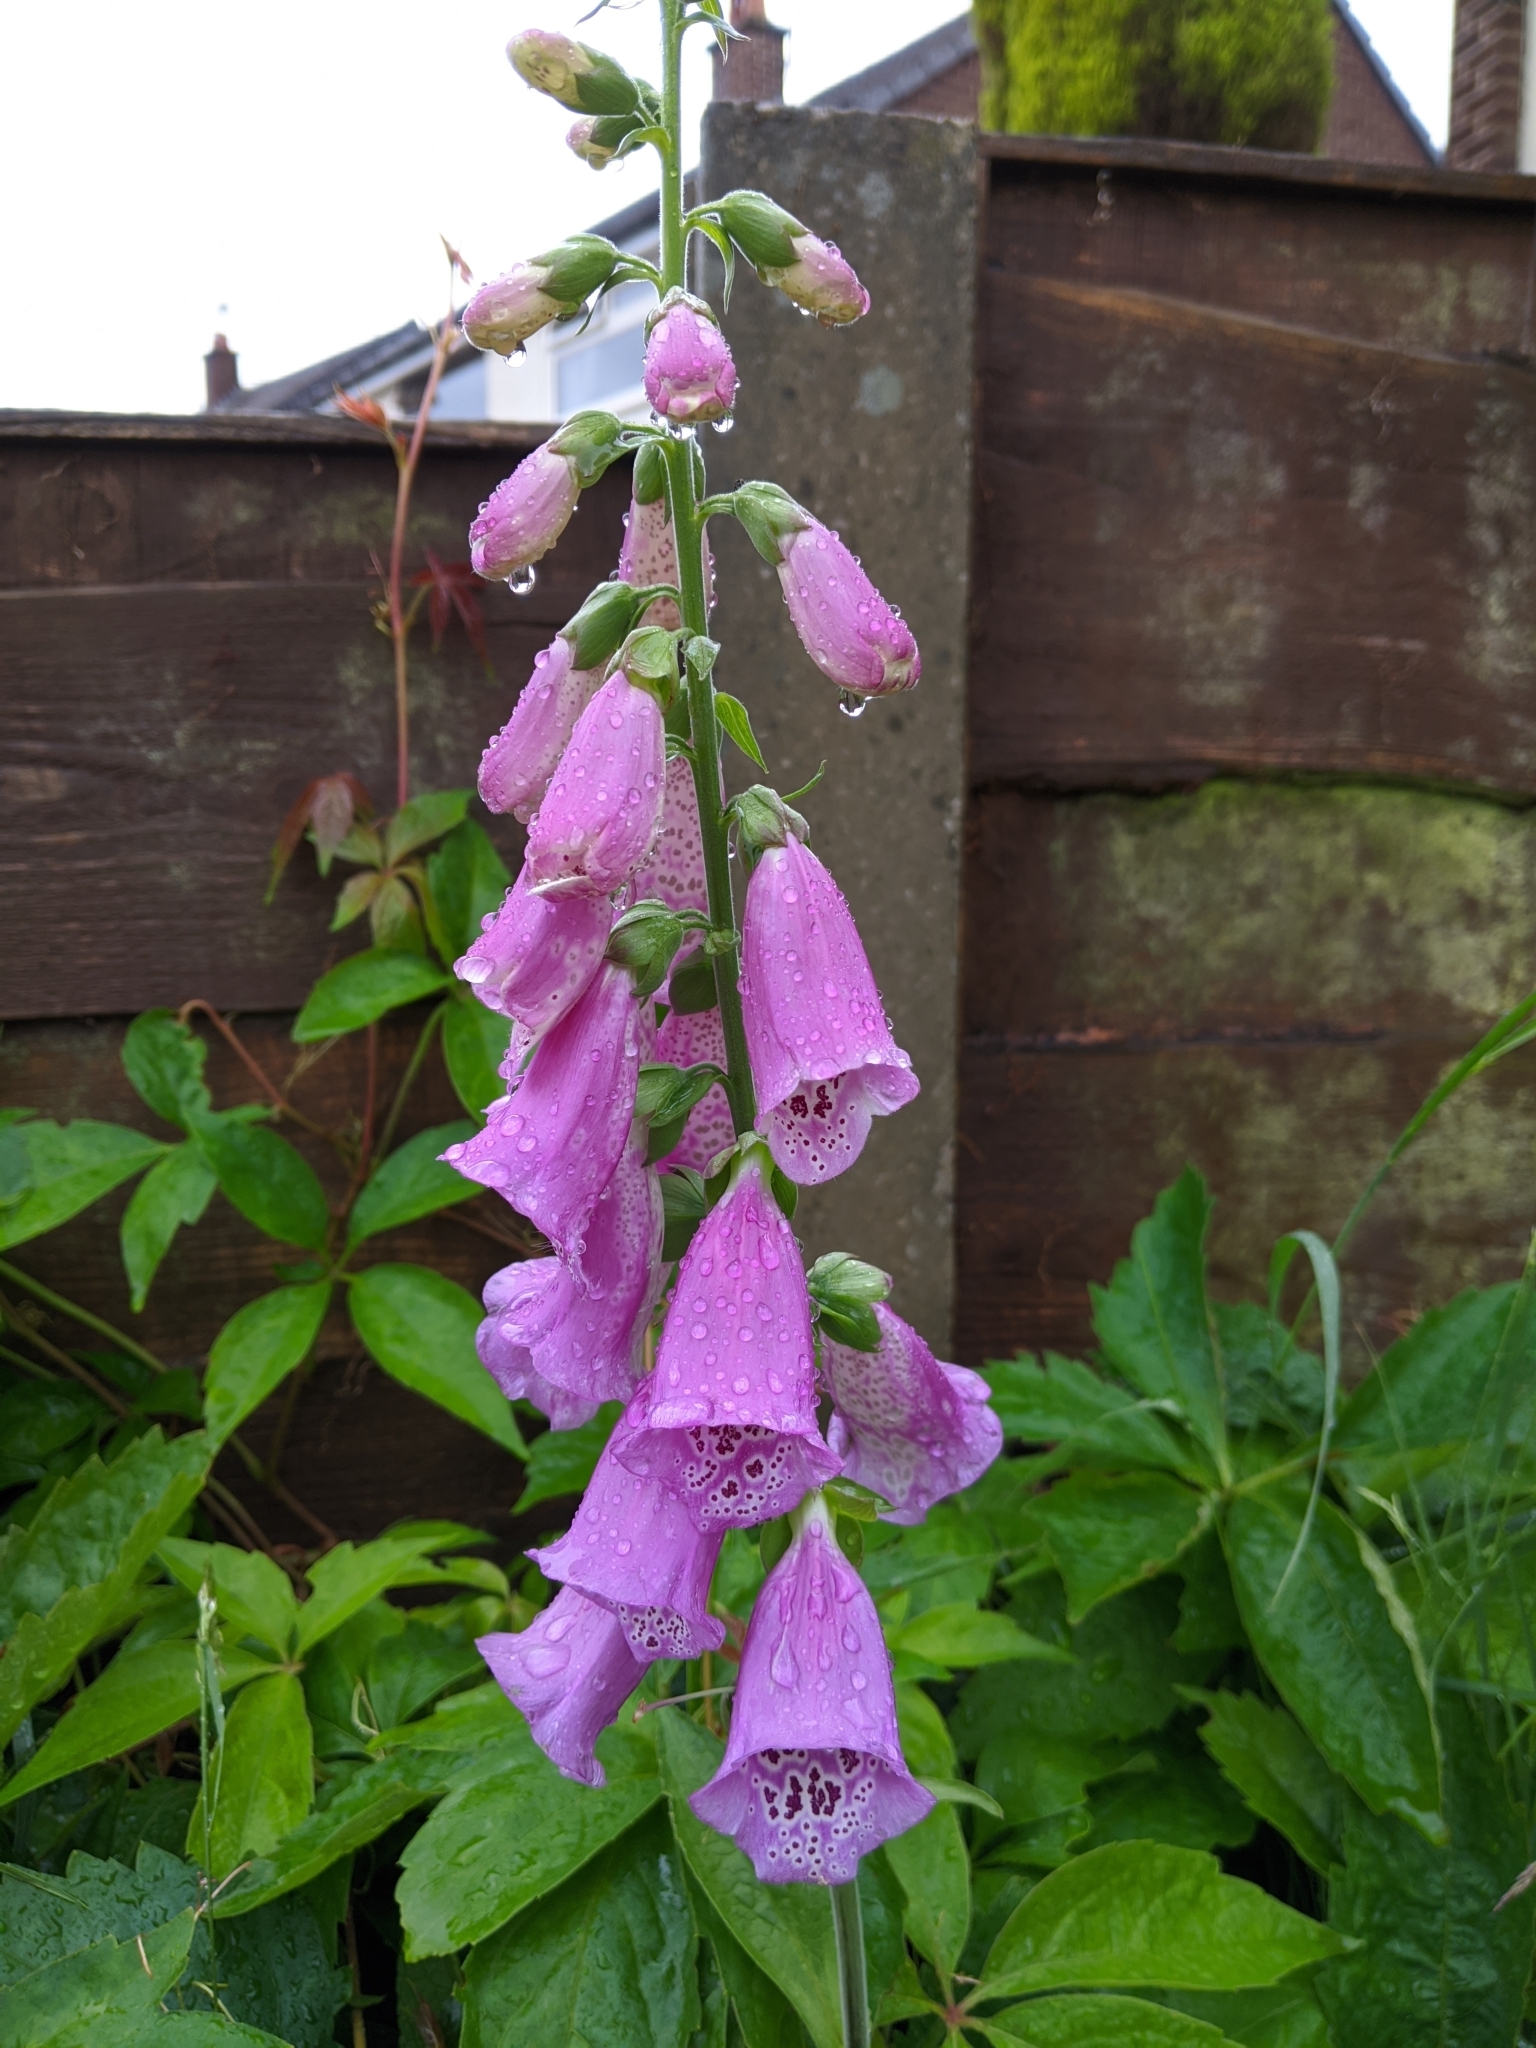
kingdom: Plantae
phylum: Tracheophyta
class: Magnoliopsida
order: Lamiales
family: Plantaginaceae
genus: Digitalis
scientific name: Digitalis purpurea
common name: Foxglove
